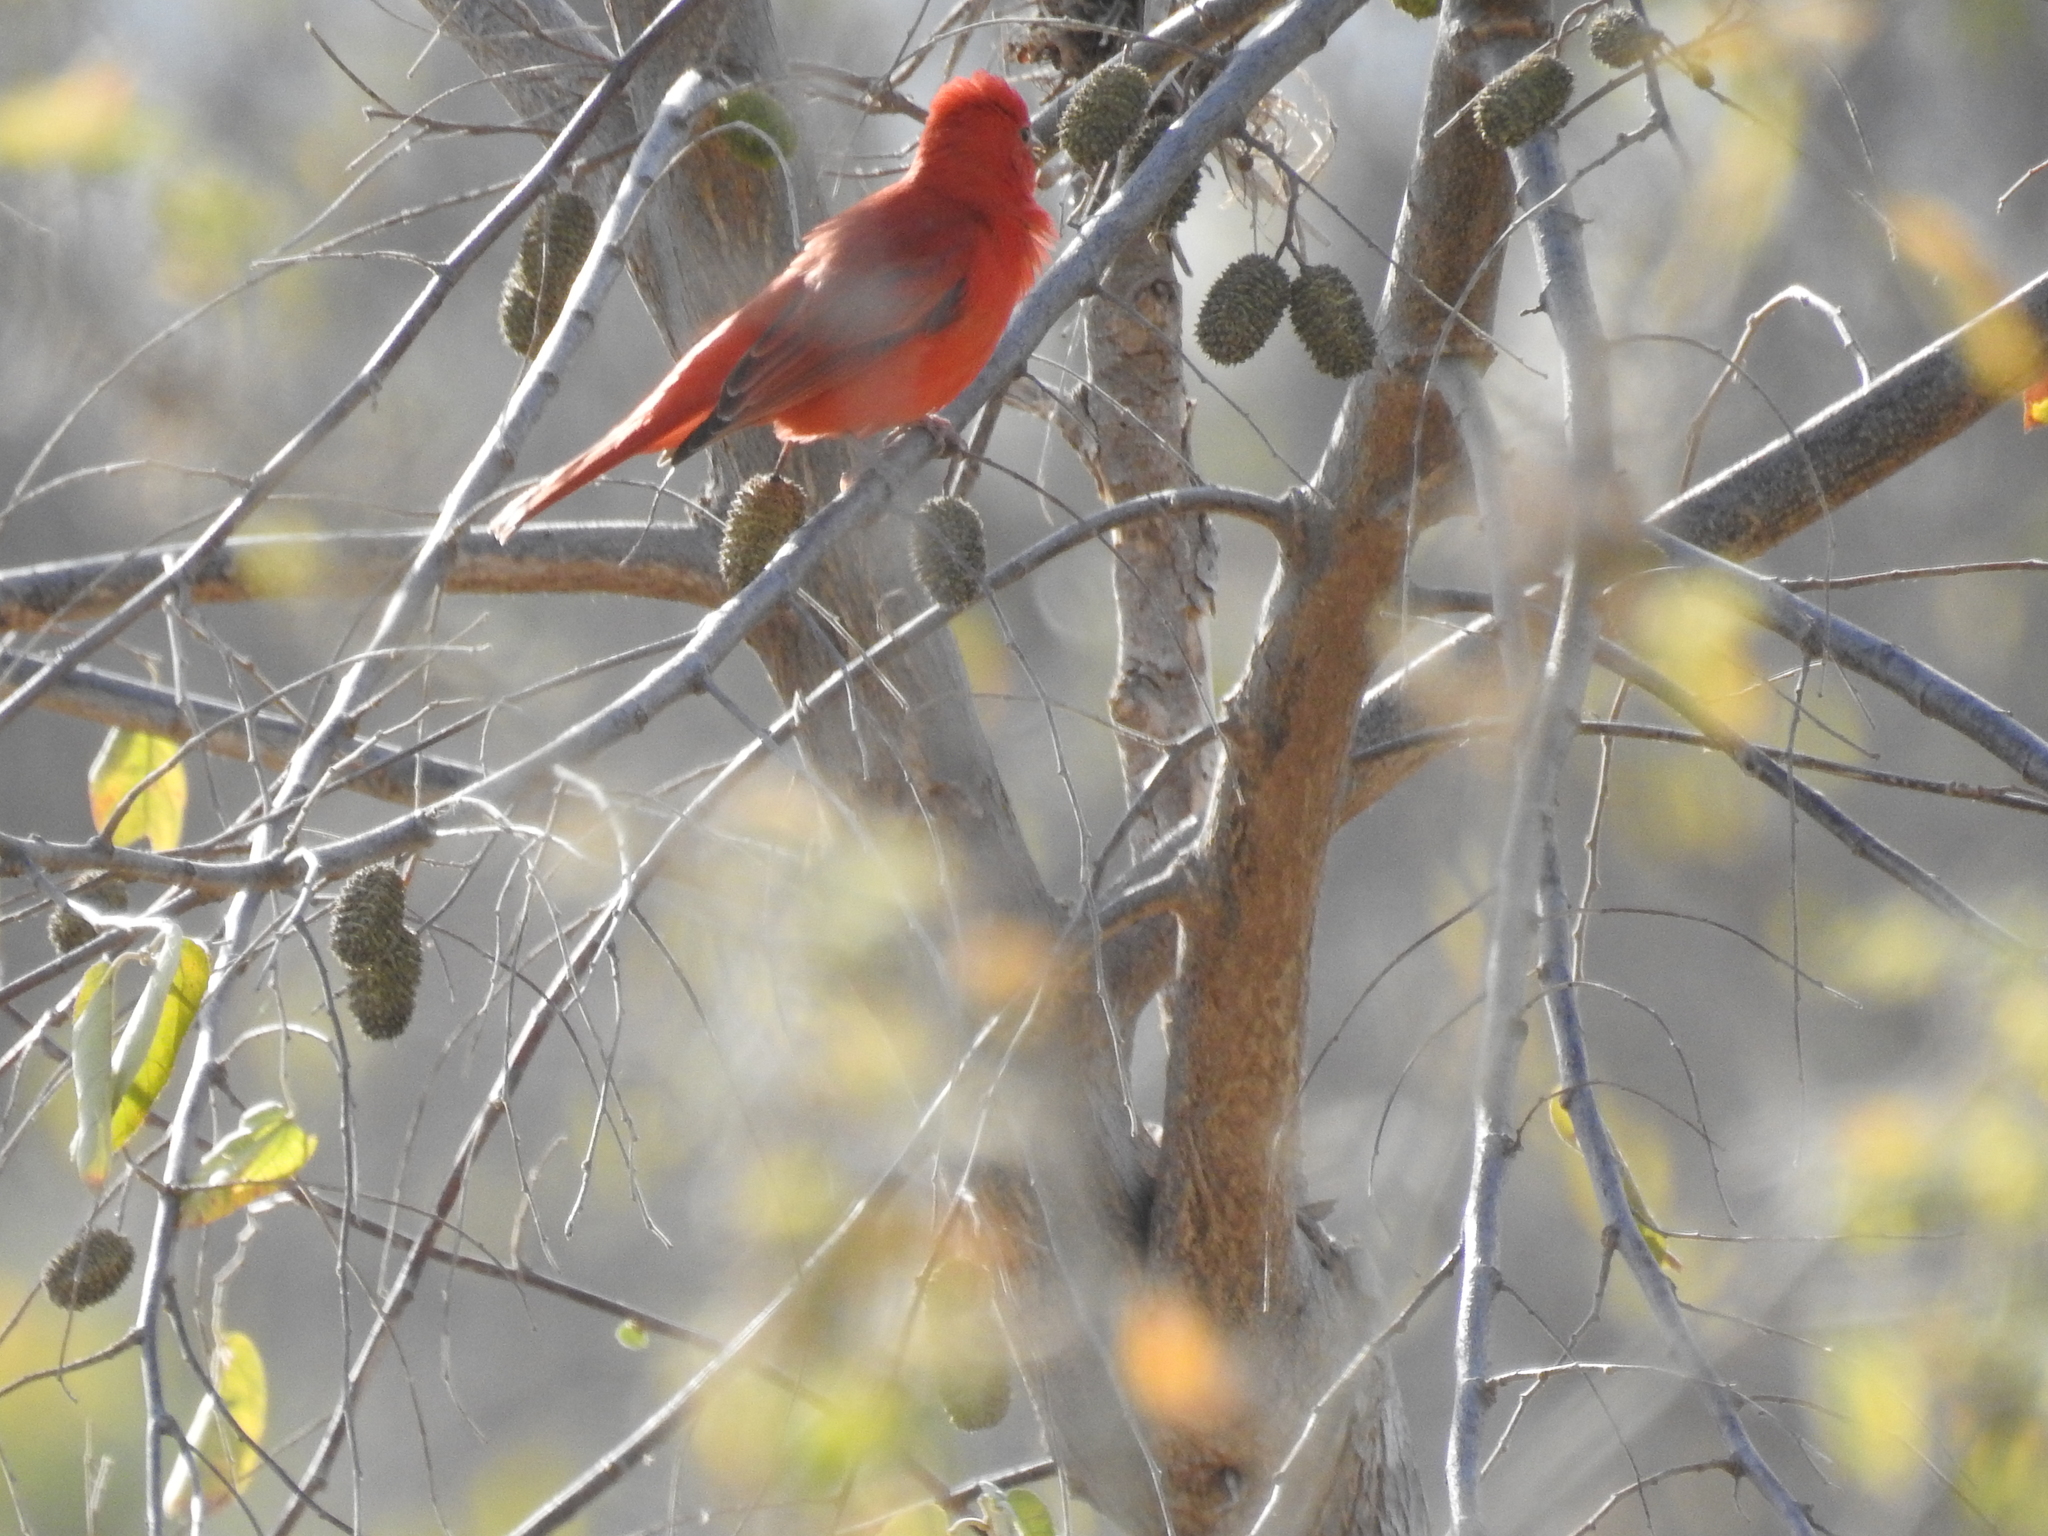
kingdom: Animalia
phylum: Chordata
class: Aves
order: Passeriformes
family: Cardinalidae
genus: Piranga
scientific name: Piranga rubra
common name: Summer tanager
